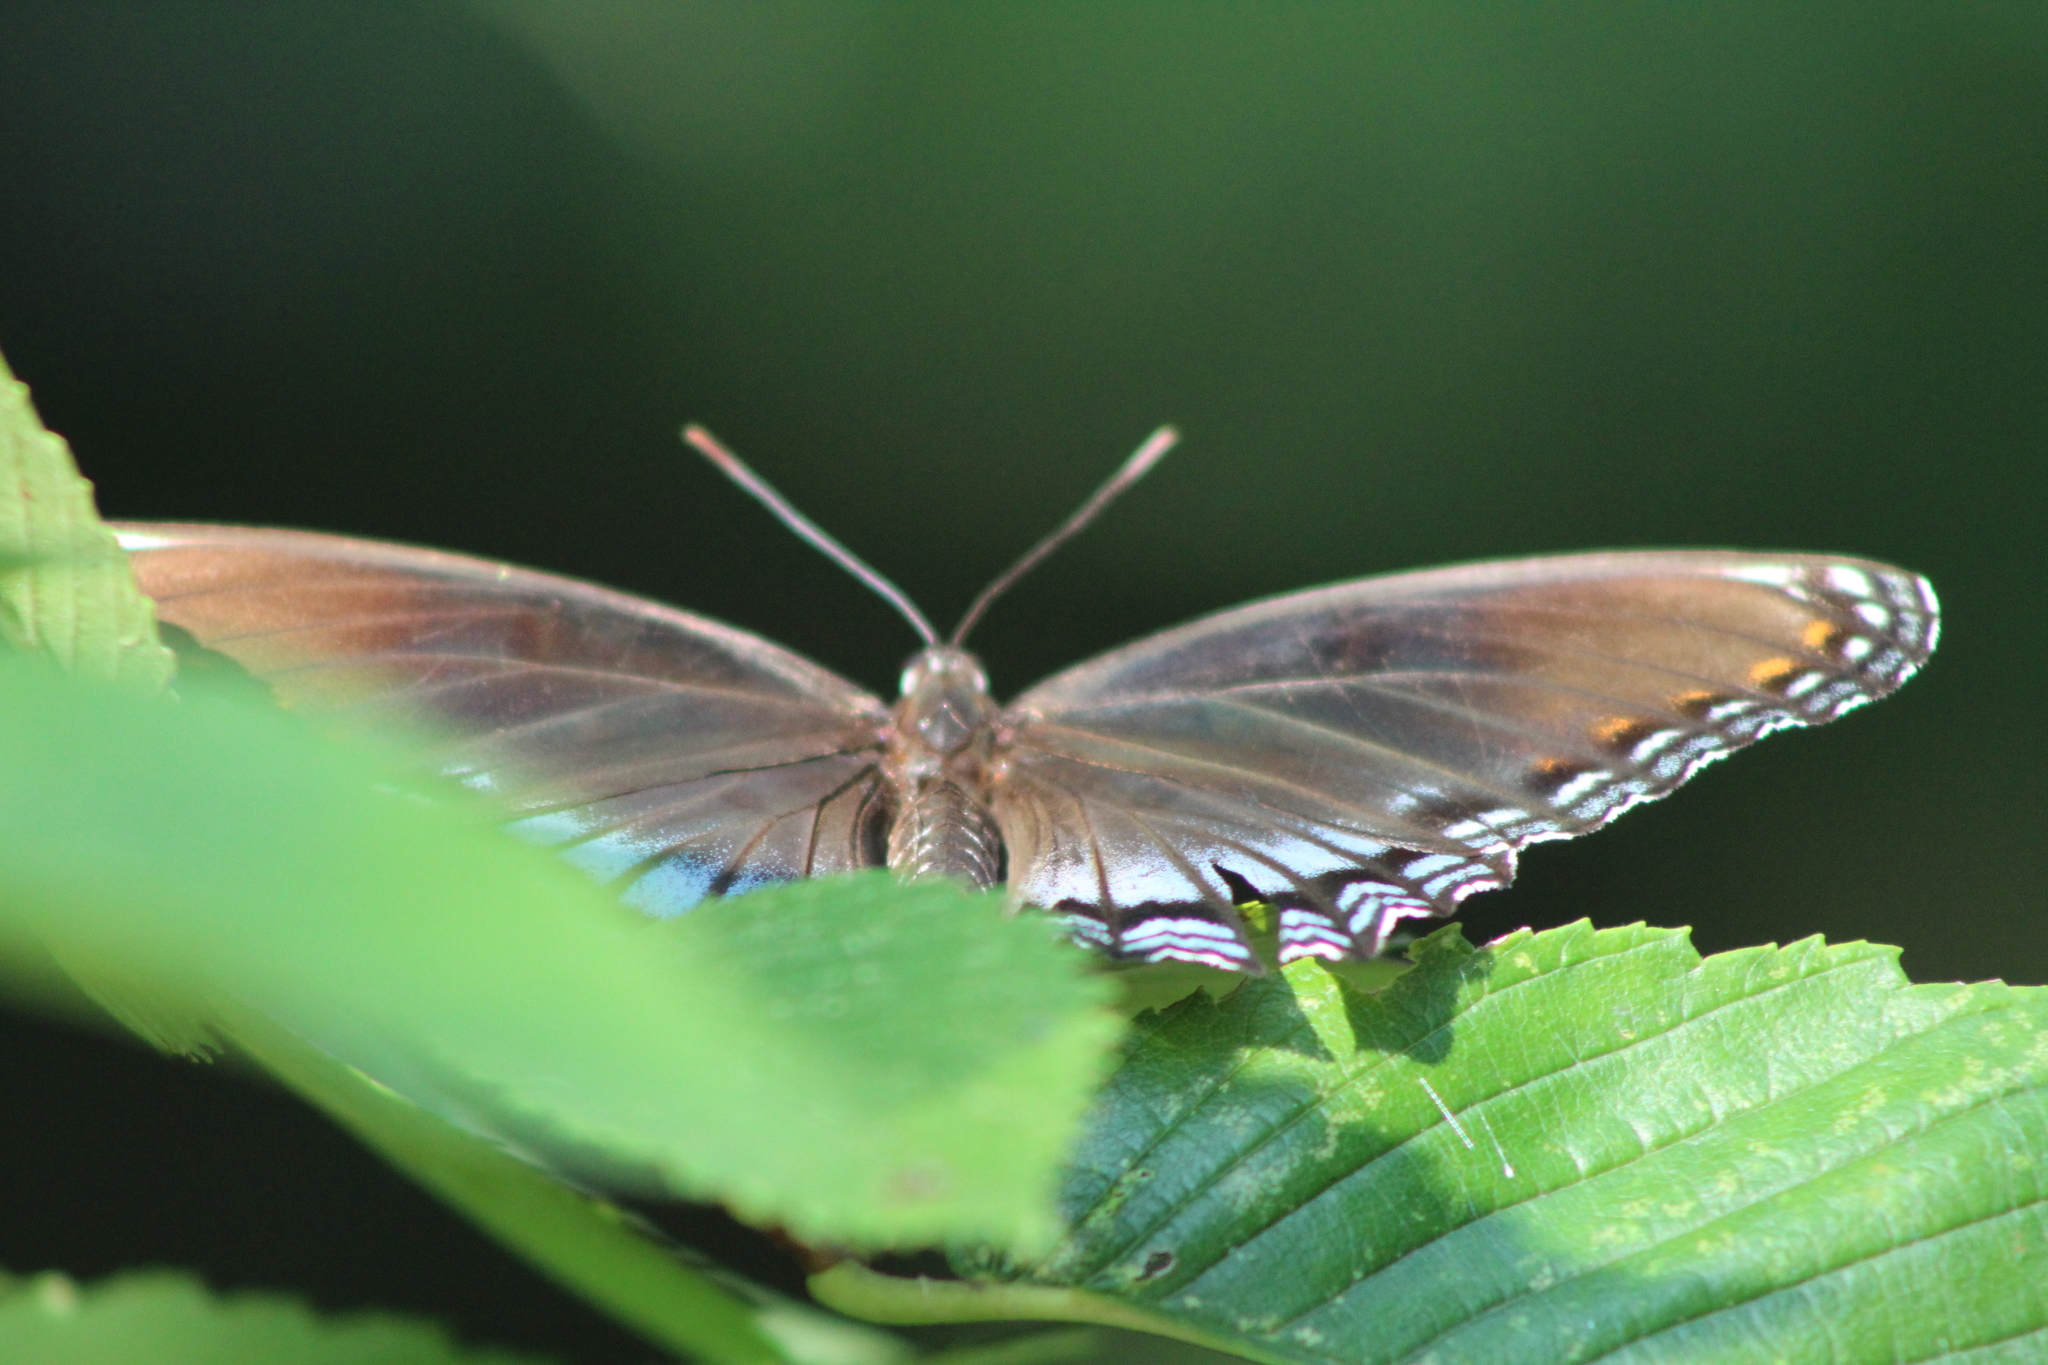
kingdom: Animalia
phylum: Arthropoda
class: Insecta
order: Lepidoptera
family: Nymphalidae
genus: Limenitis
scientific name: Limenitis astyanax
